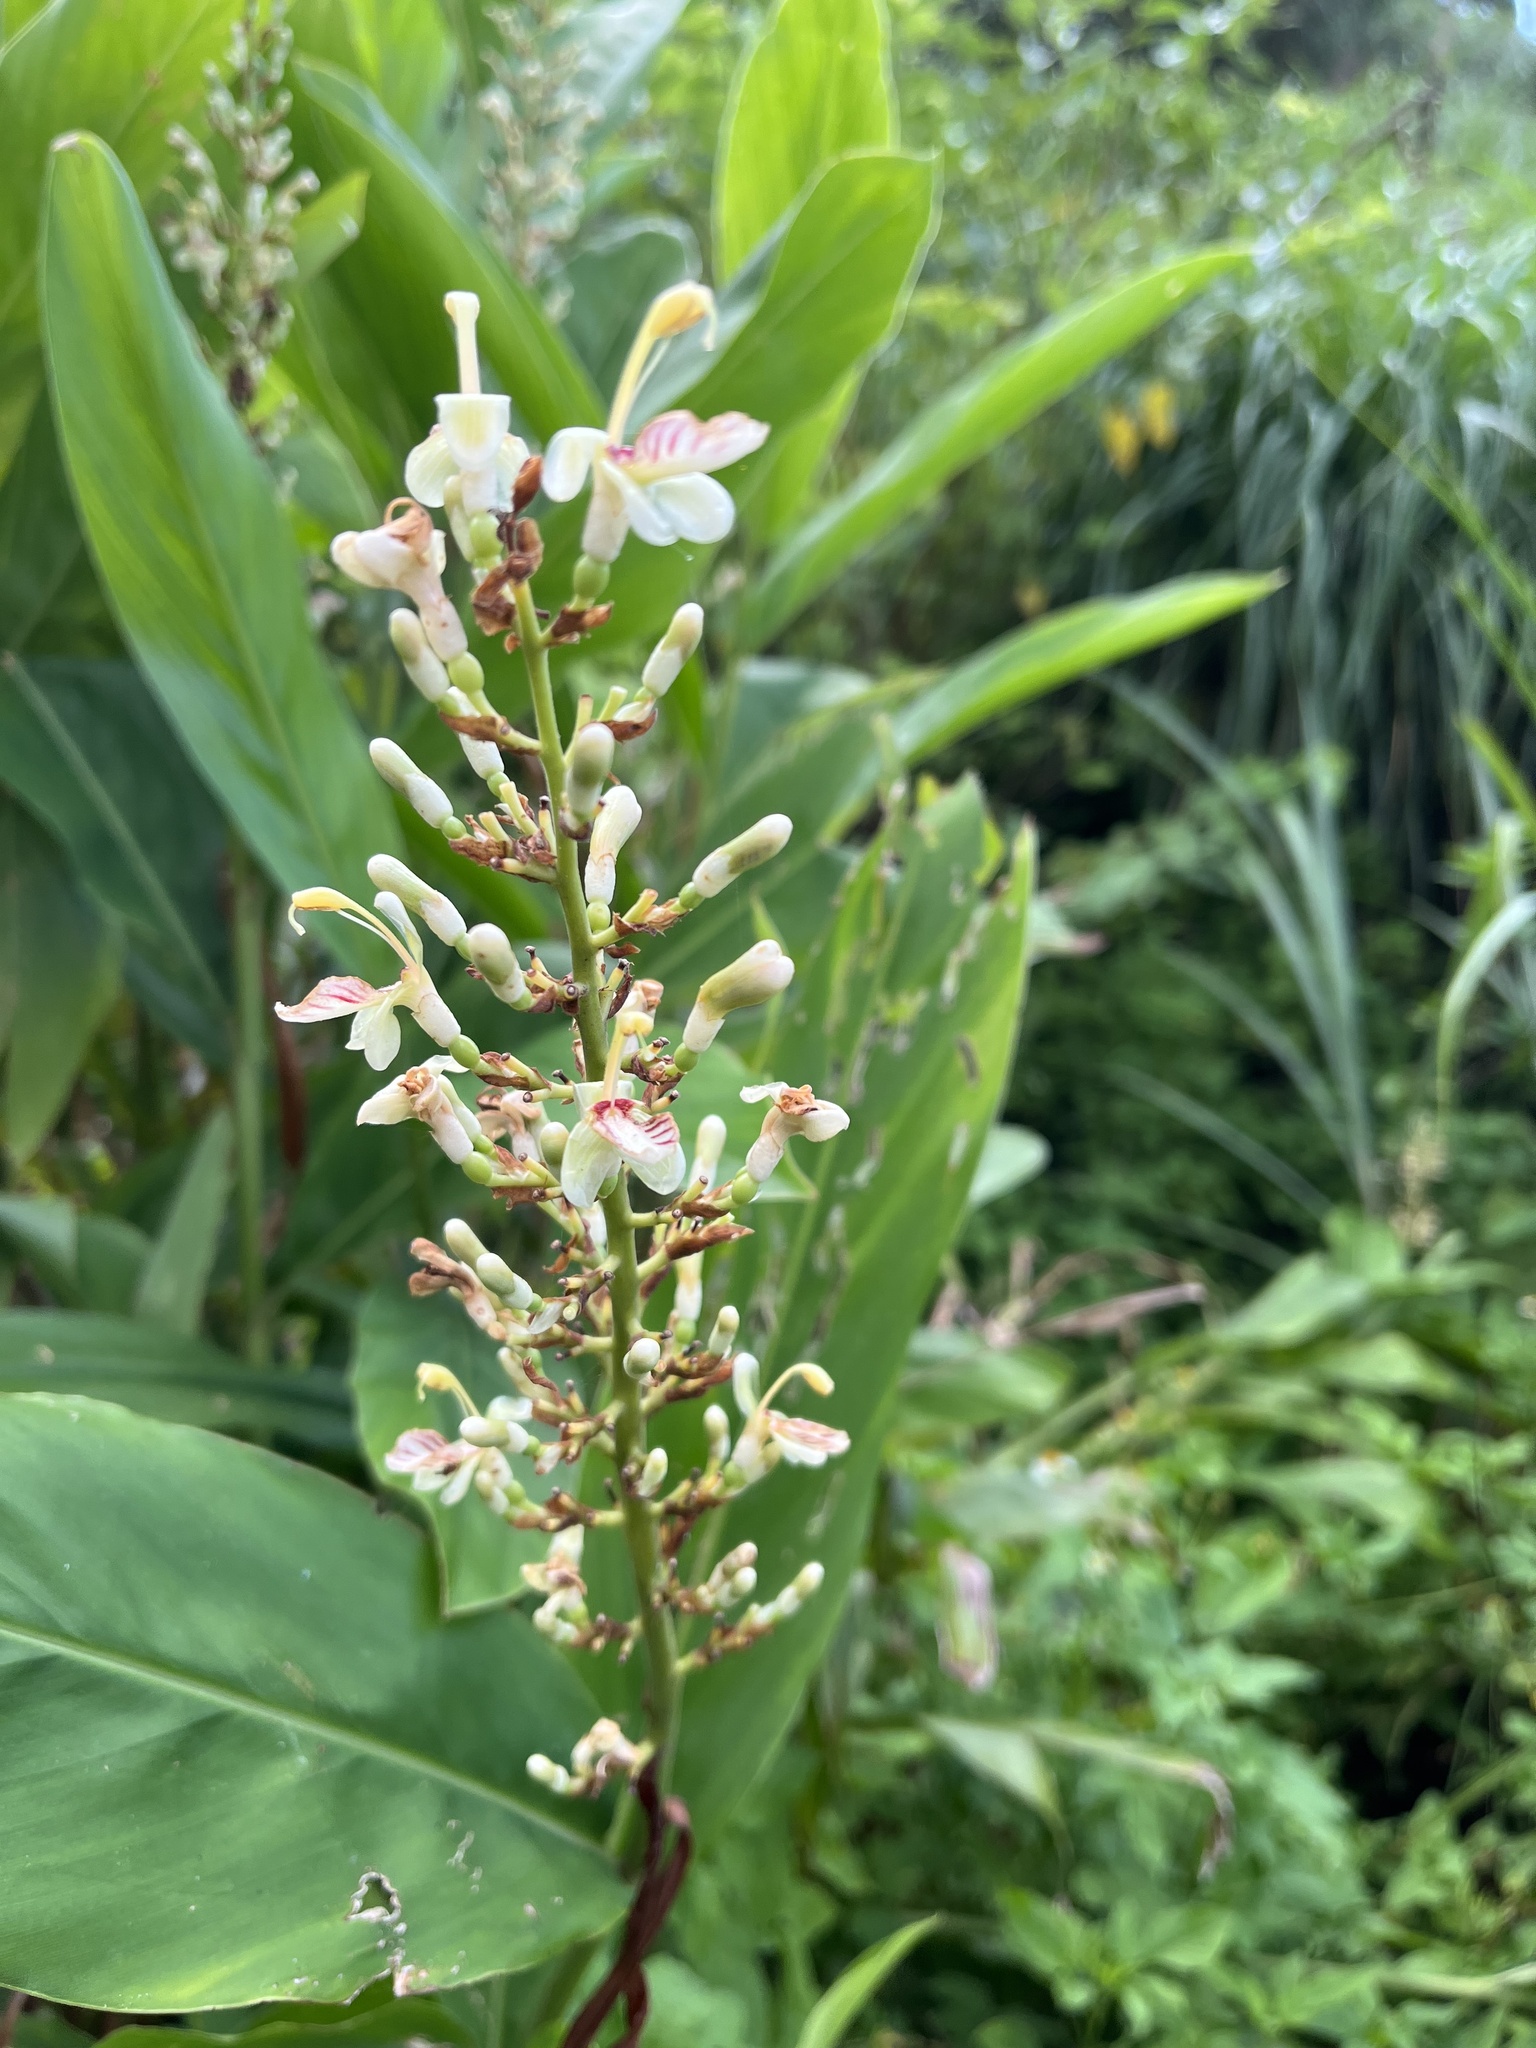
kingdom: Plantae
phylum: Tracheophyta
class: Liliopsida
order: Zingiberales
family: Zingiberaceae
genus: Alpinia
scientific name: Alpinia galanga
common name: Siamese-ginger
